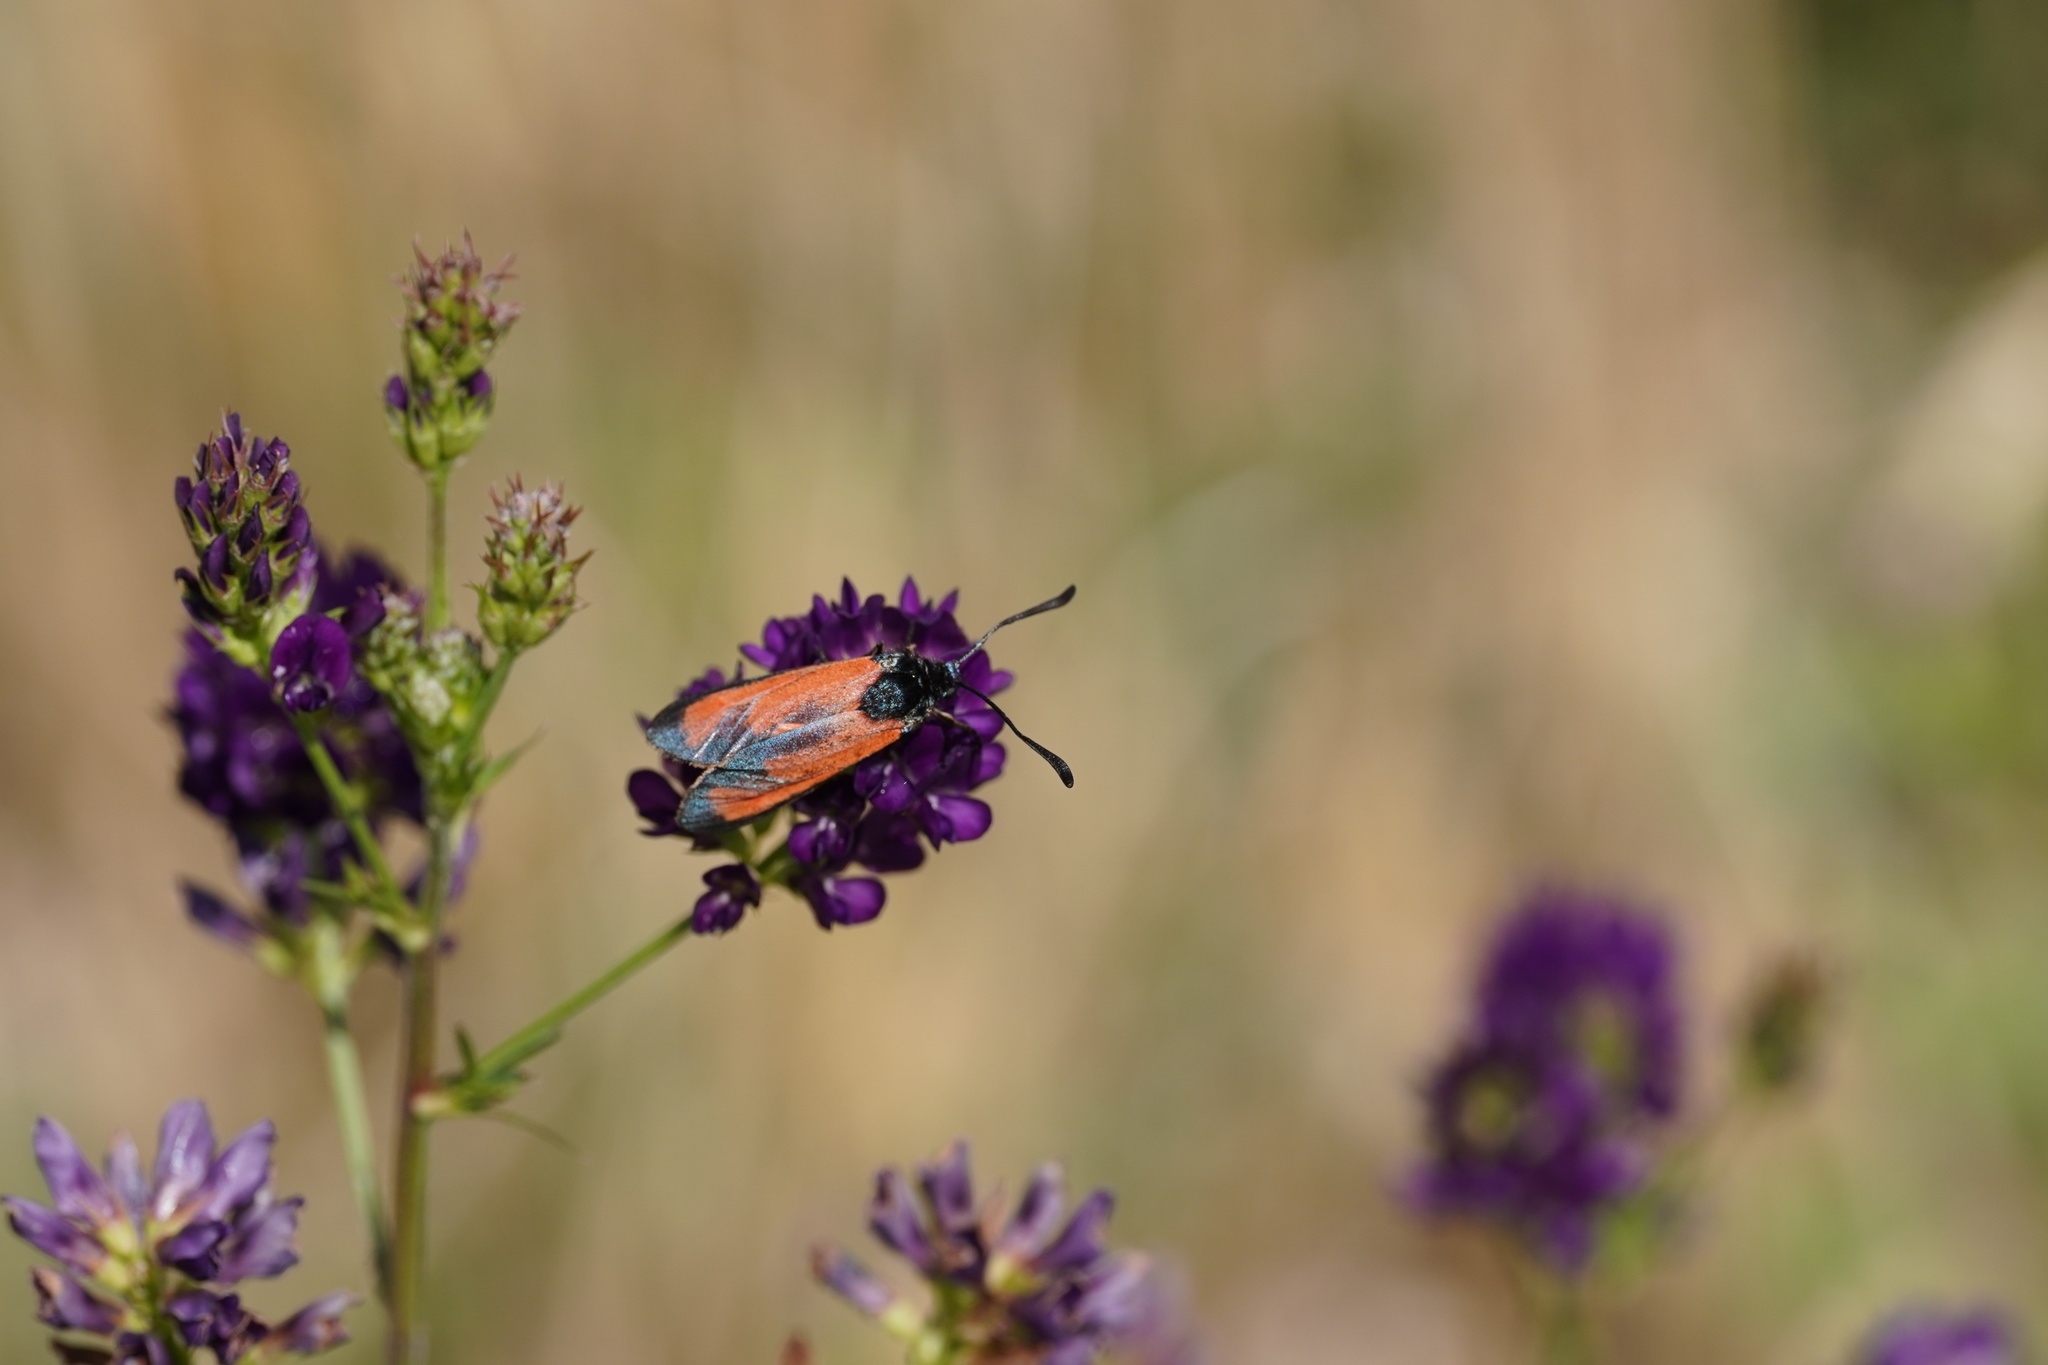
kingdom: Animalia
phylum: Arthropoda
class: Insecta
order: Lepidoptera
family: Zygaenidae
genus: Zygaena
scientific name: Zygaena erythrus
